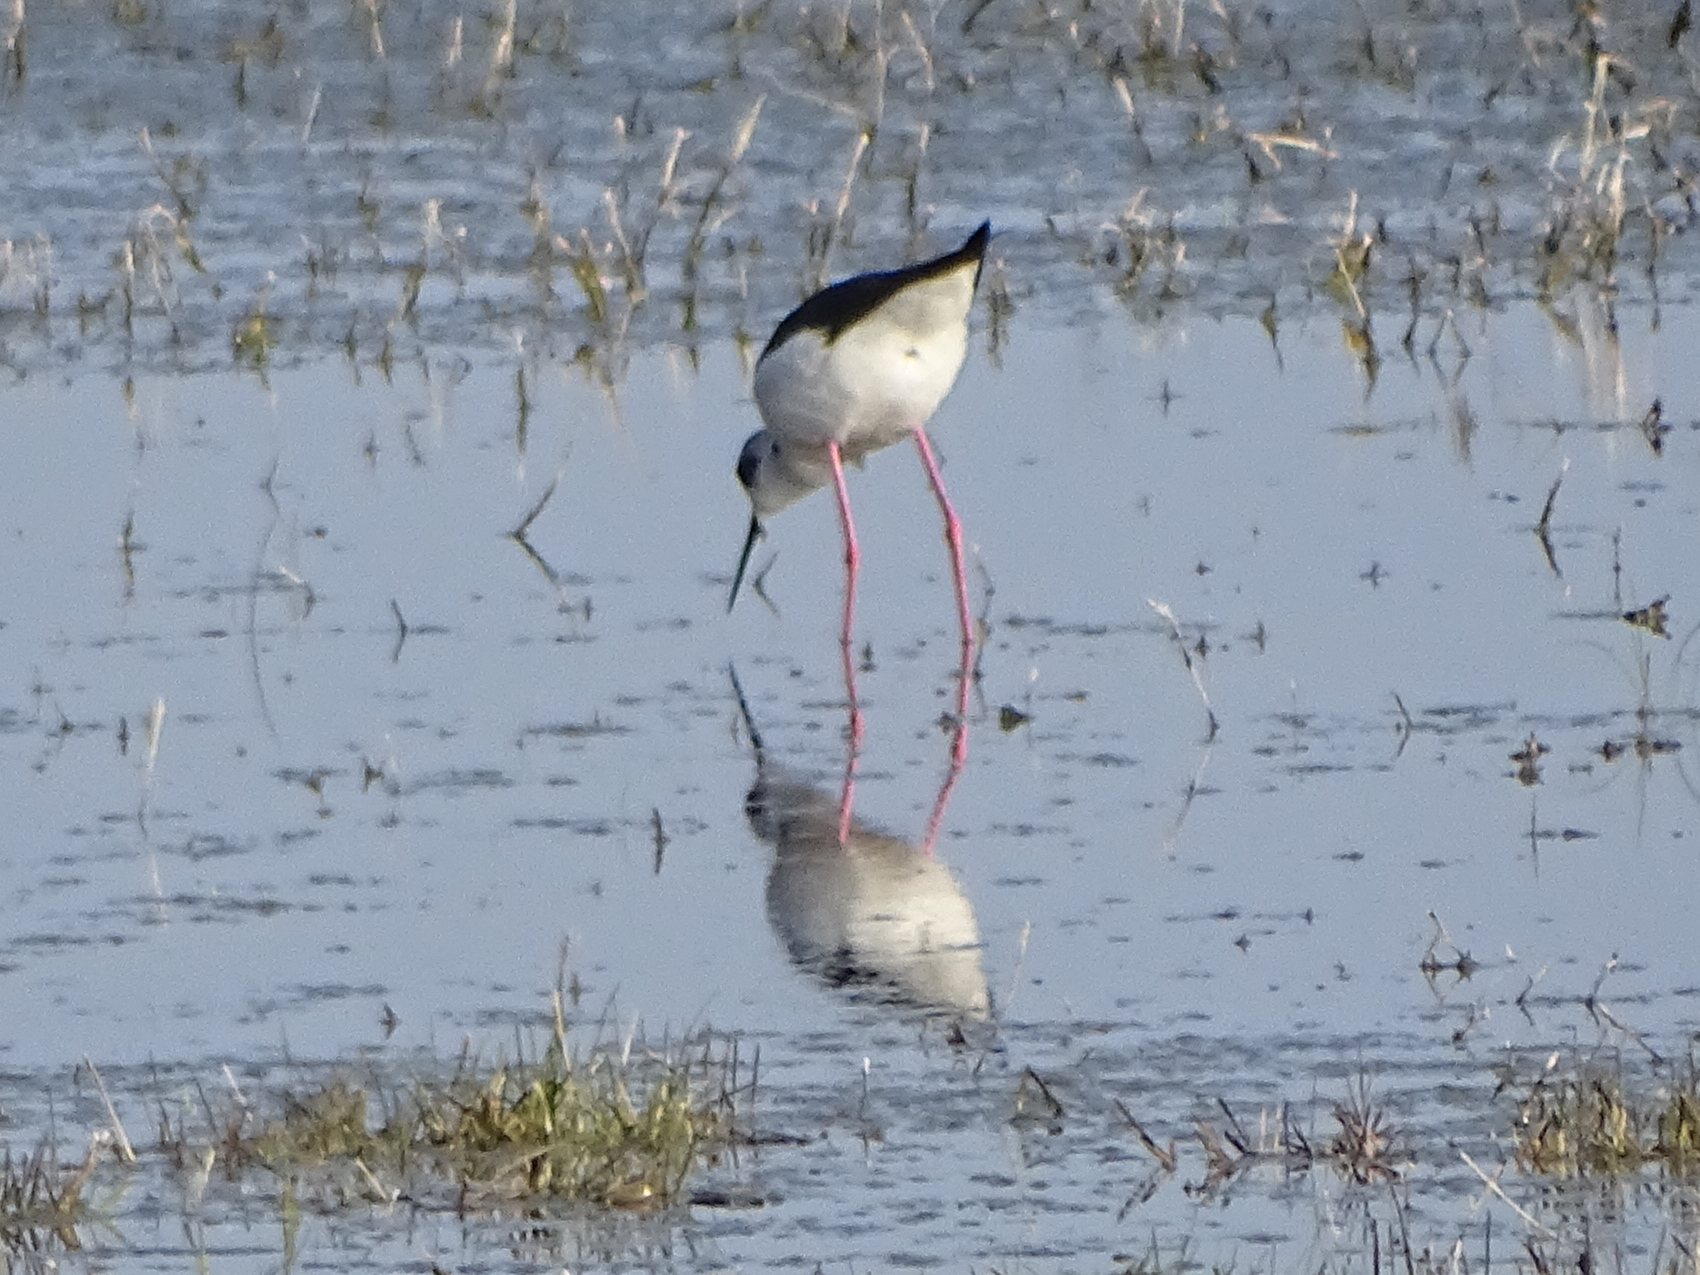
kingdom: Animalia
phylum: Chordata
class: Aves
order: Charadriiformes
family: Recurvirostridae
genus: Himantopus
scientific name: Himantopus himantopus
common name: Black-winged stilt
